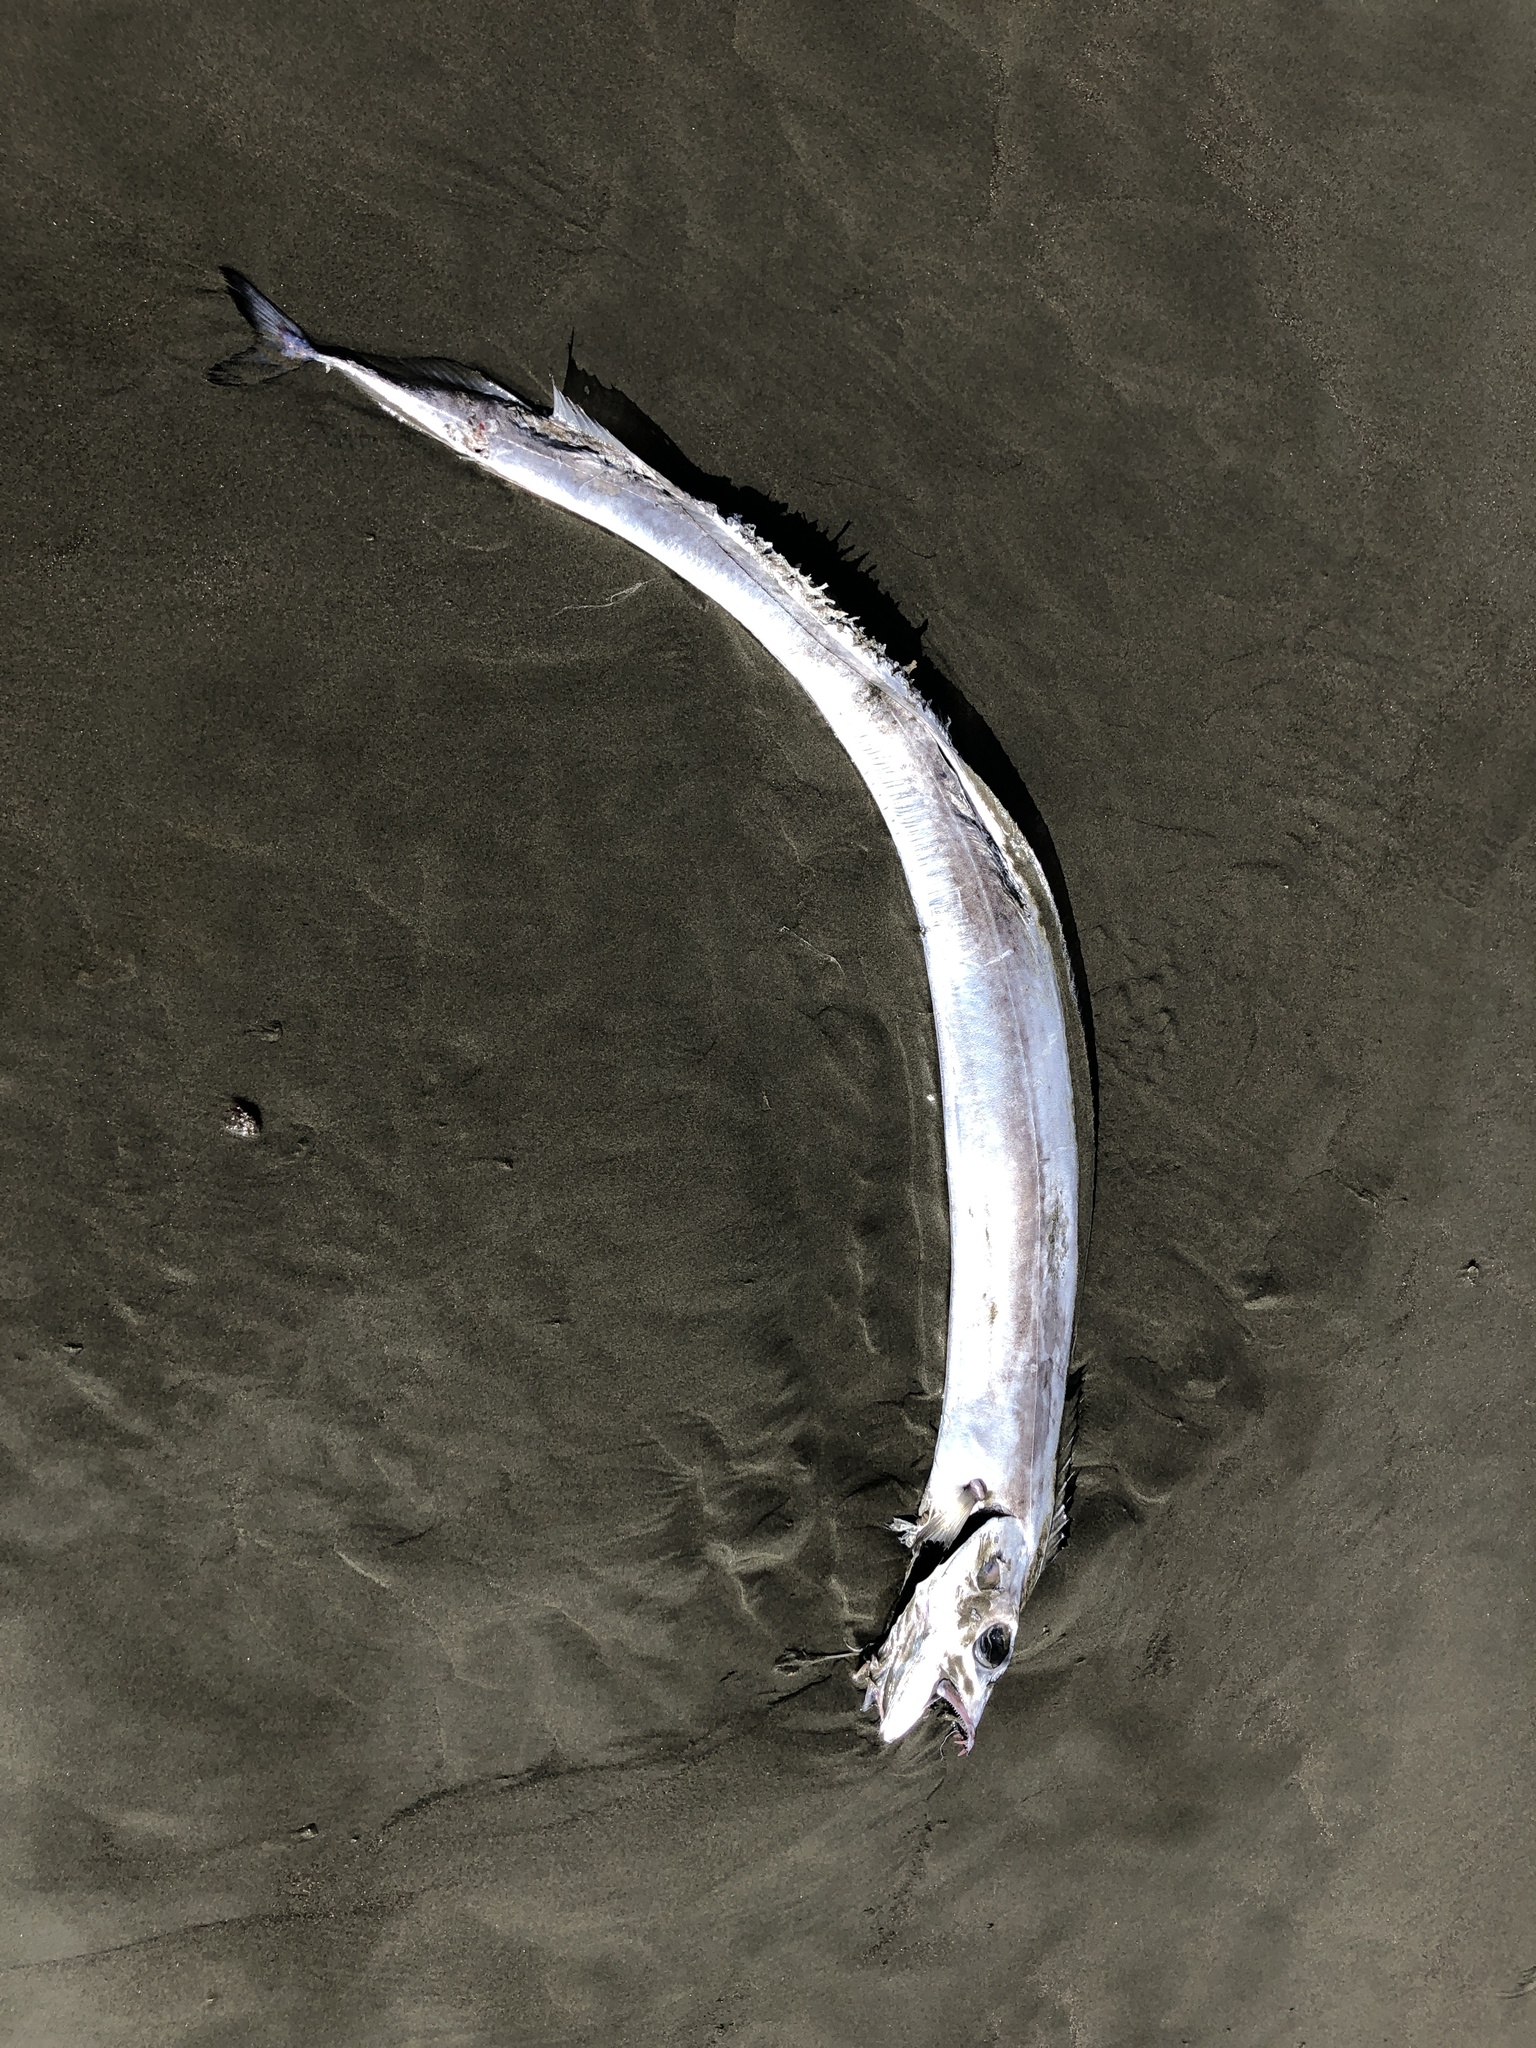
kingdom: Animalia
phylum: Chordata
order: Perciformes
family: Trichiuridae
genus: Lepidopus
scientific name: Lepidopus caudatus
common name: Silver scabbardfish
